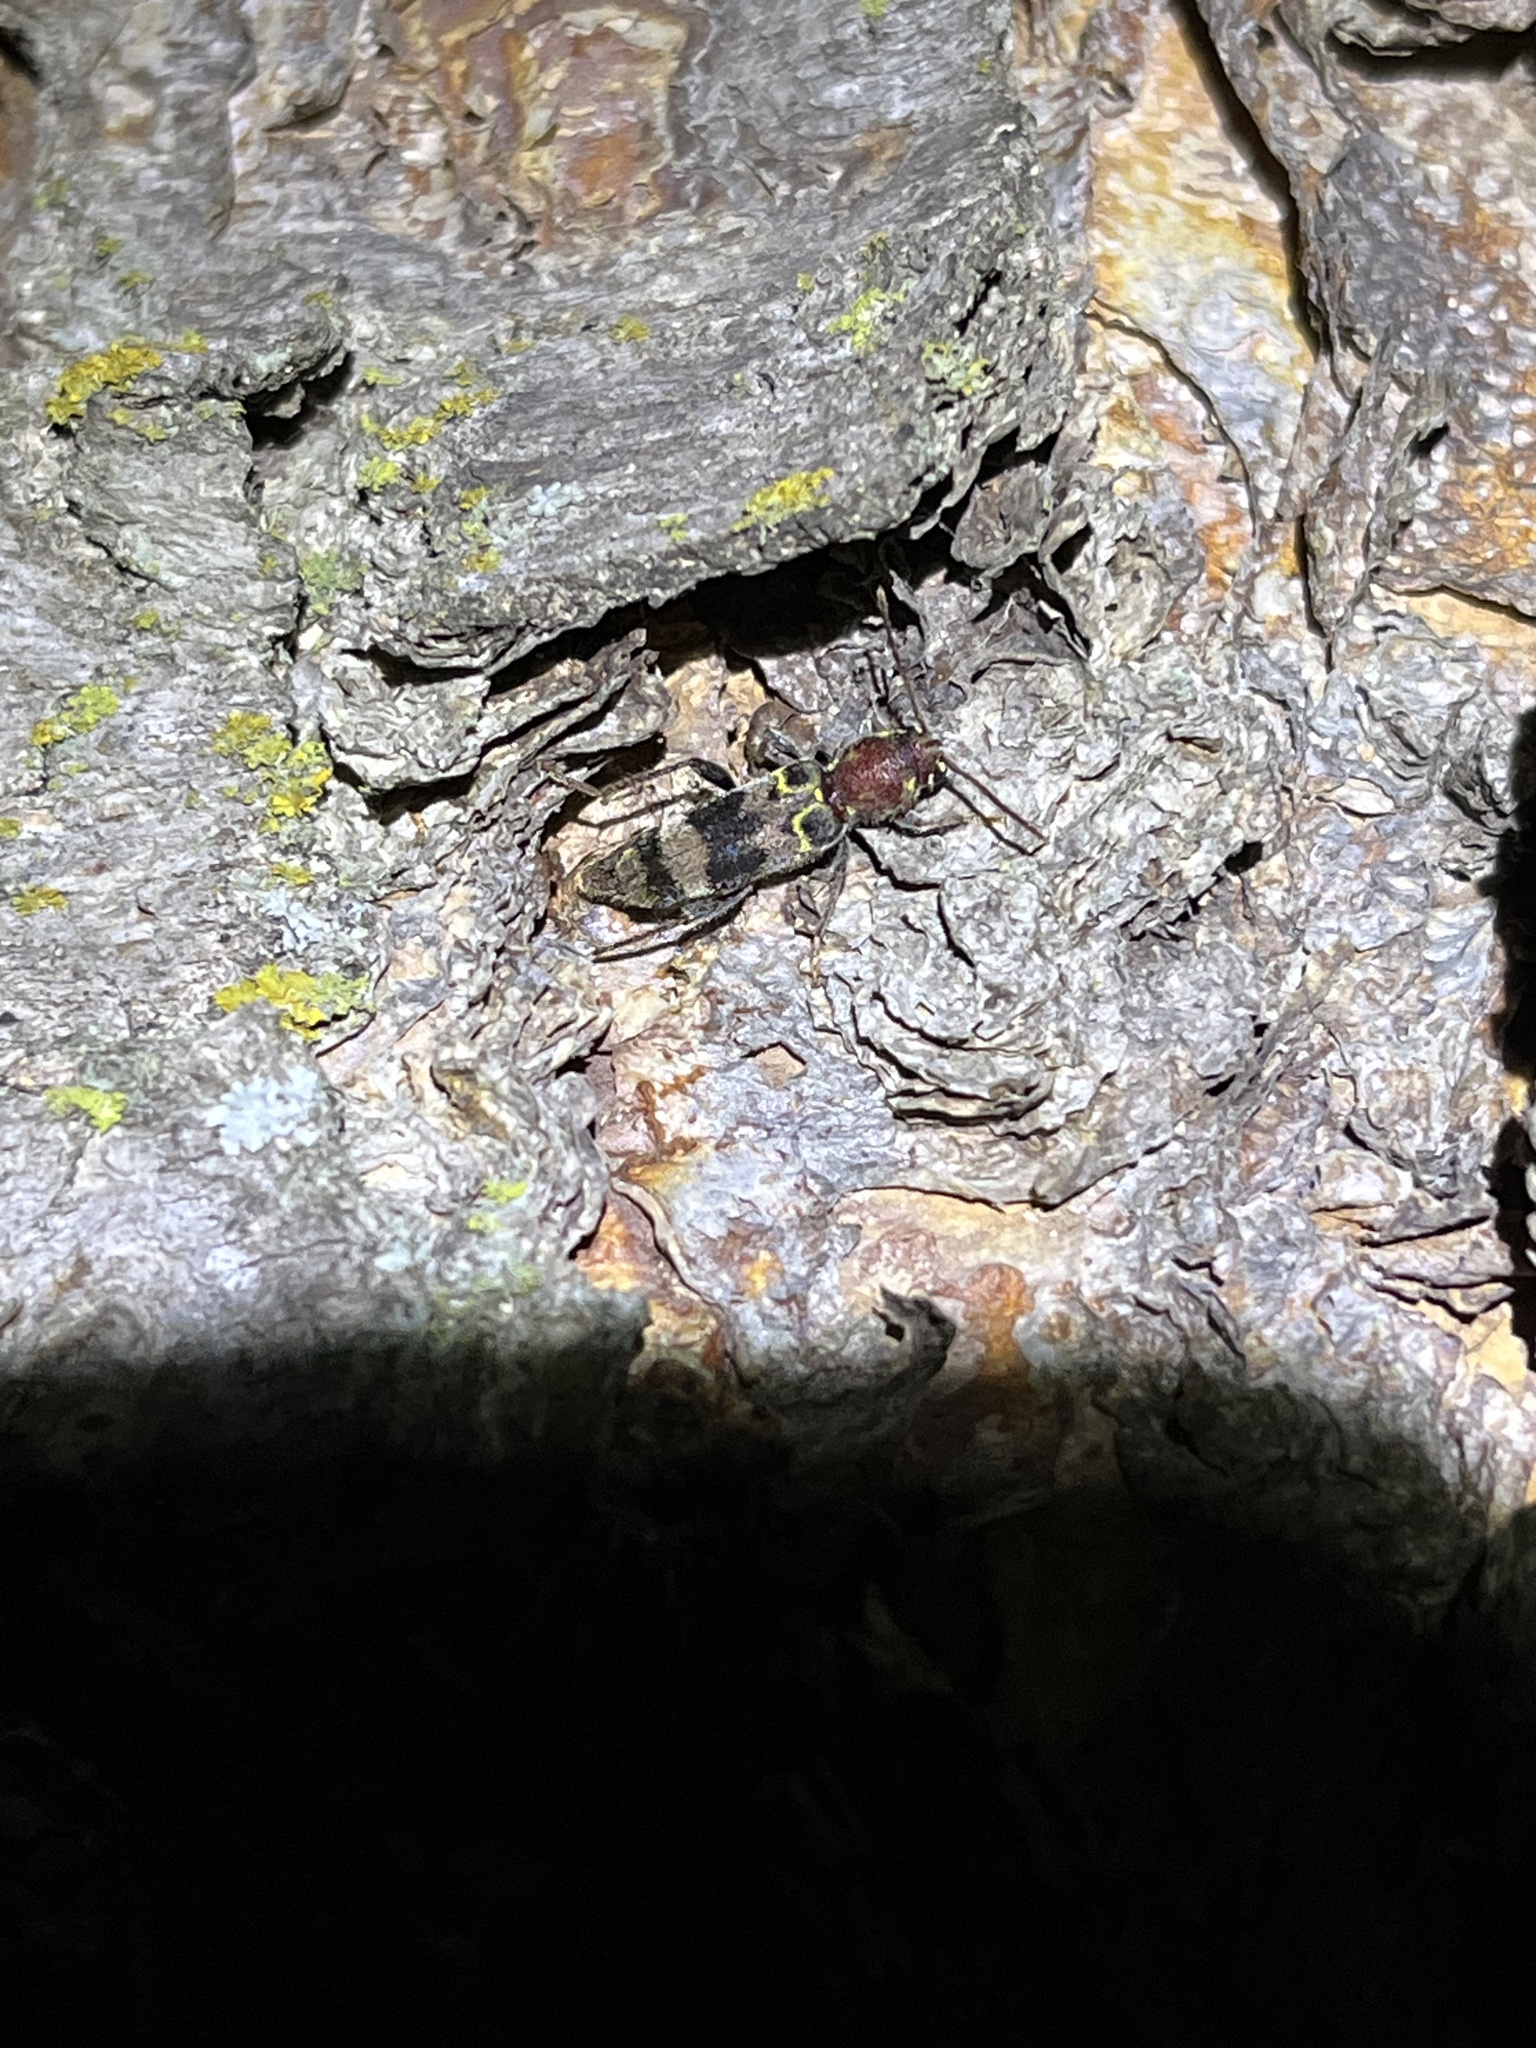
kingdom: Animalia
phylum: Arthropoda
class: Insecta
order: Coleoptera
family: Cerambycidae
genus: Xylotrechus
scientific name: Xylotrechus colonus
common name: Long-horned beetle
